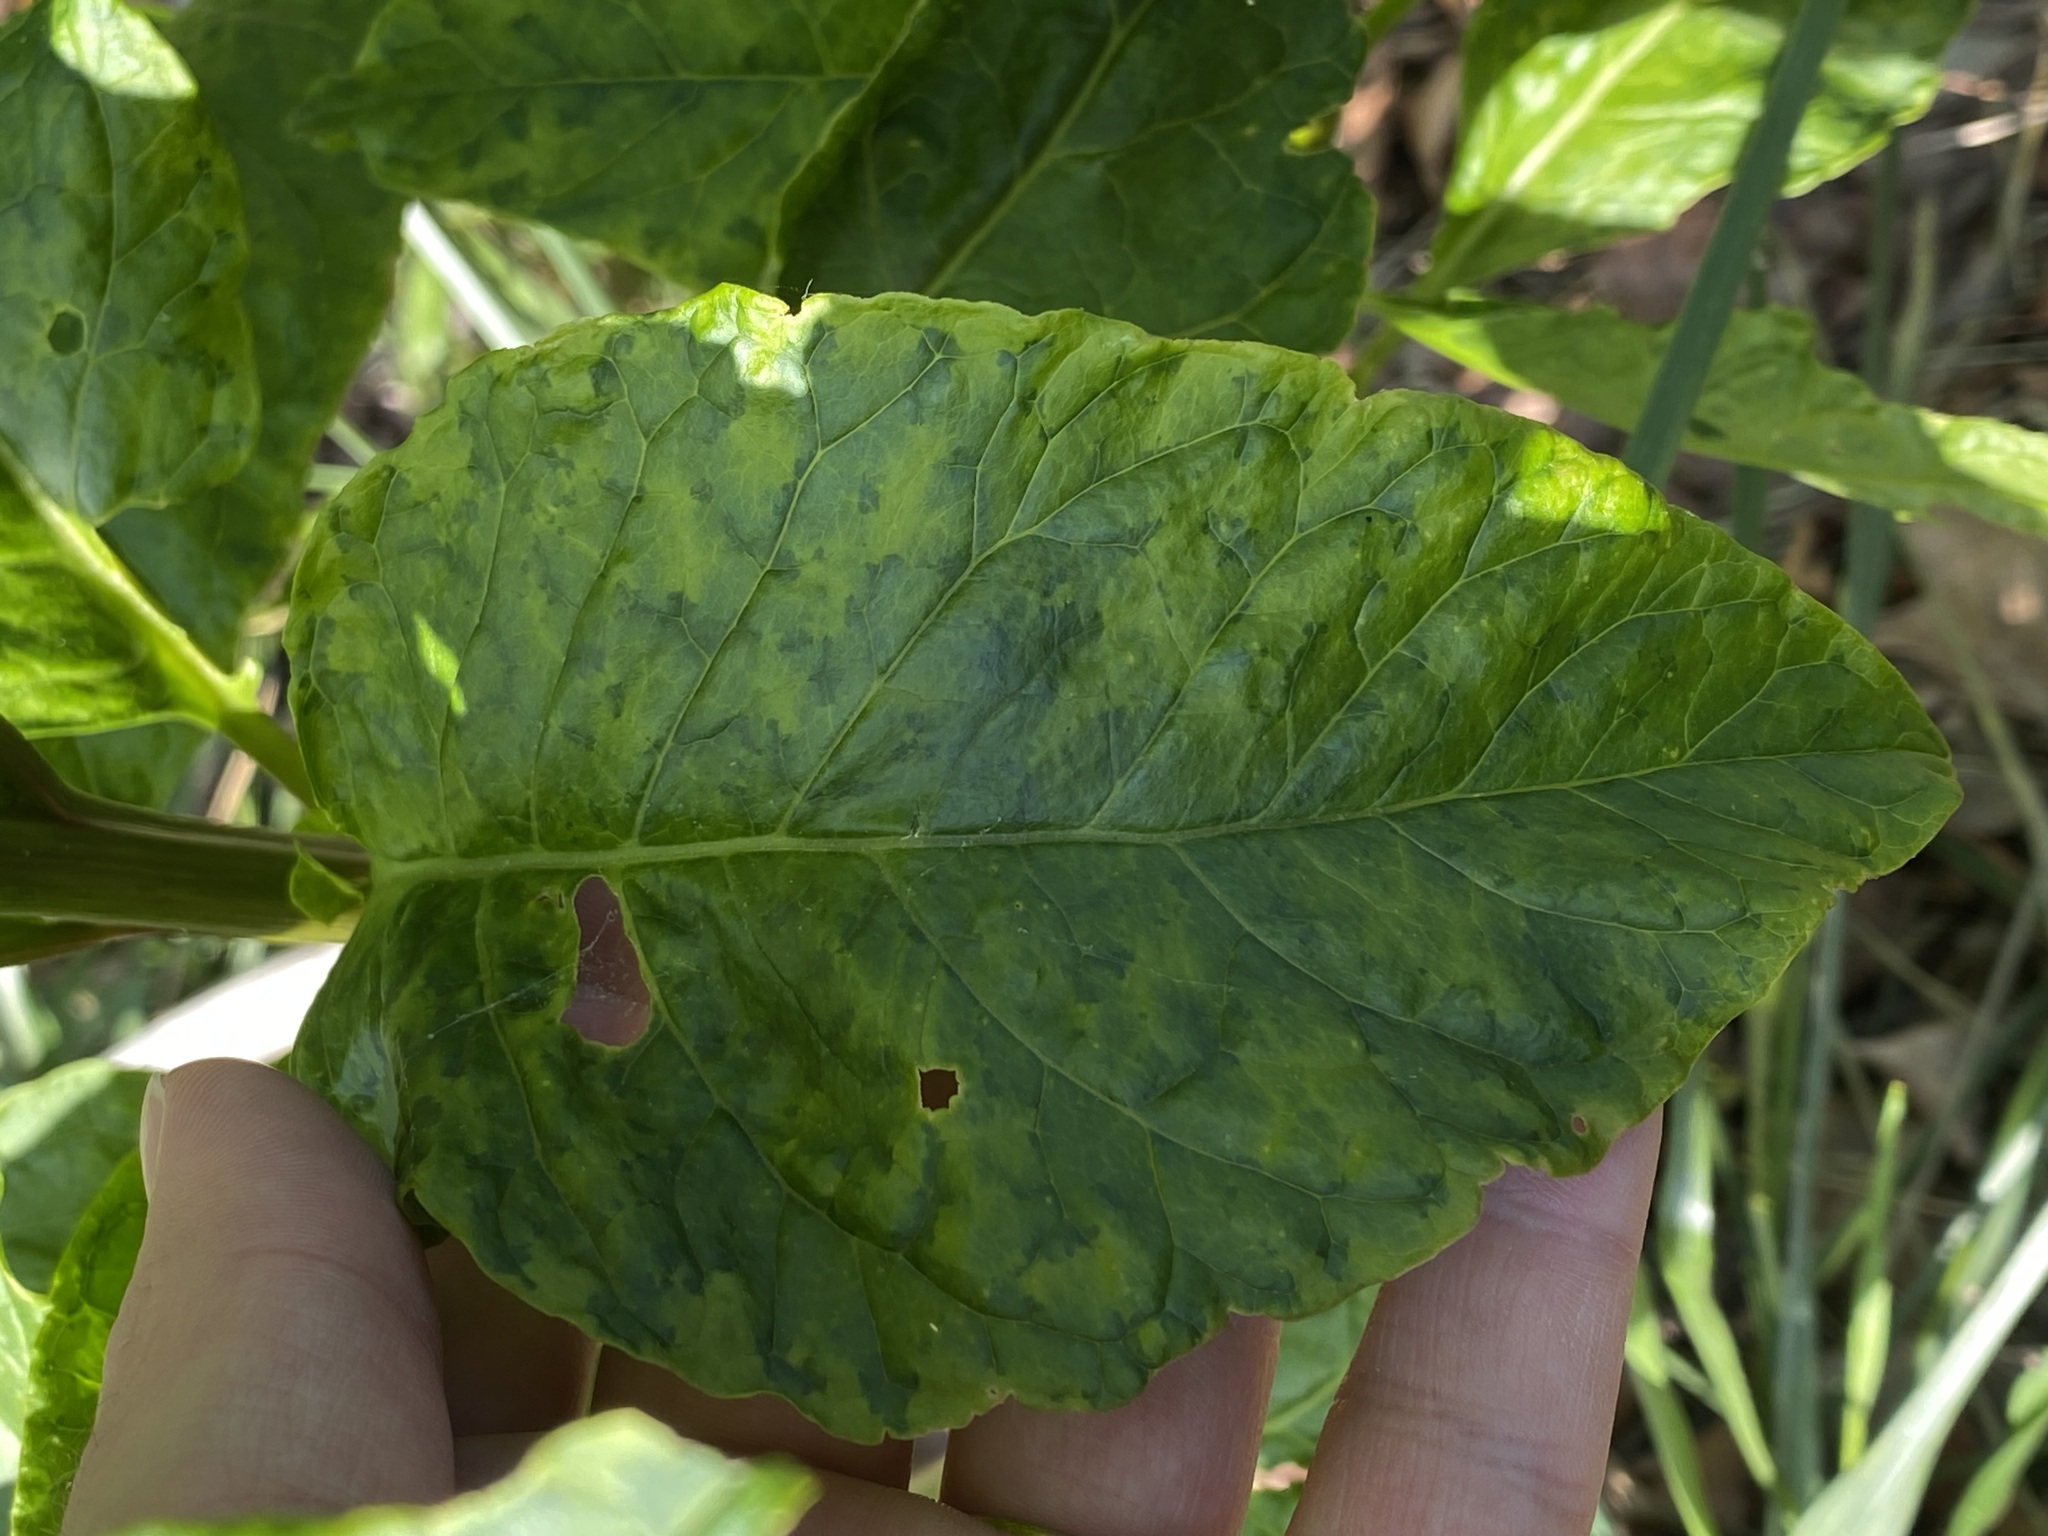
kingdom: Viruses
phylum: Pisuviricota
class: Stelpaviricetes
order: Patatavirales
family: Potyviridae
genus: Potyvirus
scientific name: Potyvirus Pokeweed mosaic virus
